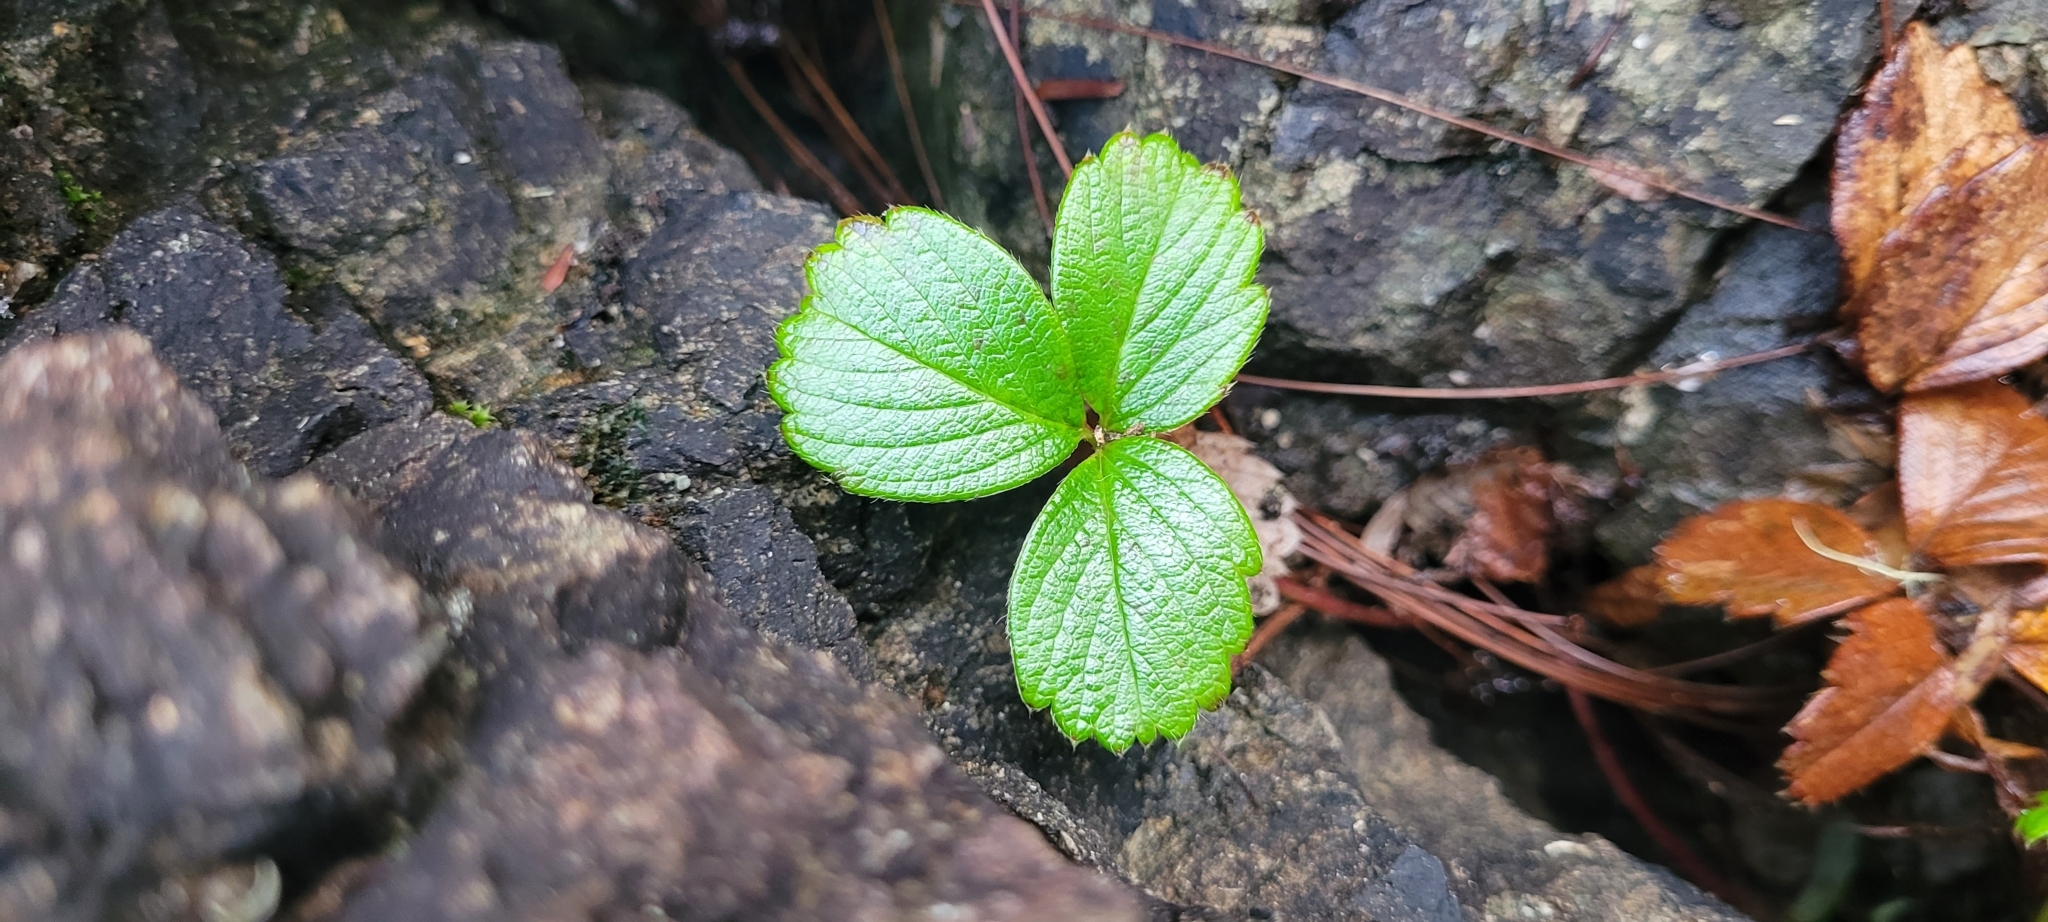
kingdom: Plantae
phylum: Tracheophyta
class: Magnoliopsida
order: Rosales
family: Rosaceae
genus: Fragaria
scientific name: Fragaria chiloensis
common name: Beach strawberry
